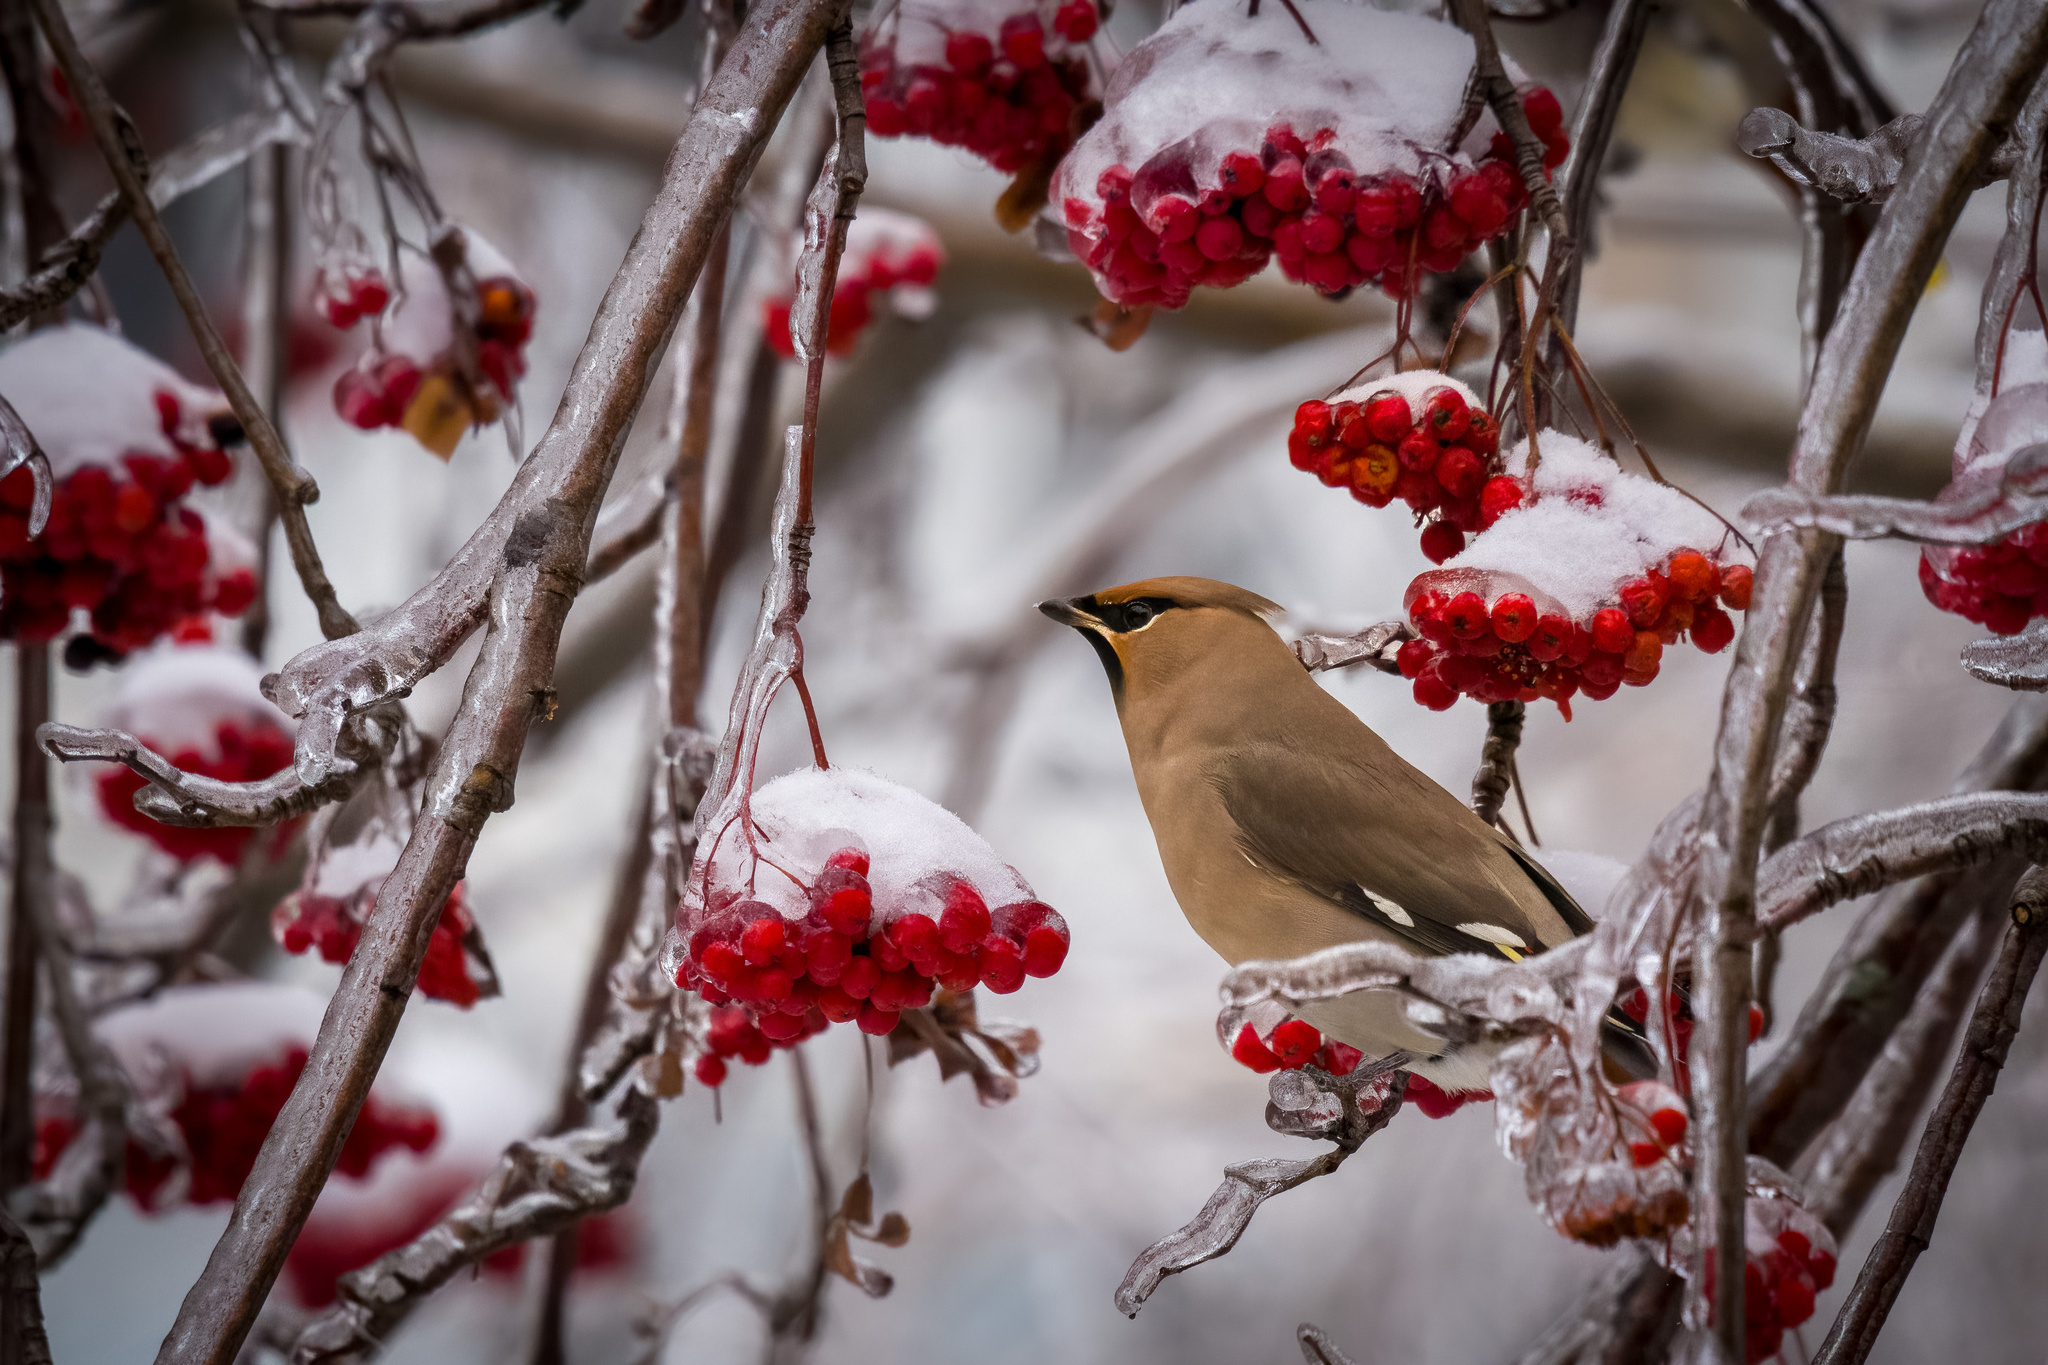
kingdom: Animalia
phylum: Chordata
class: Aves
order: Passeriformes
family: Bombycillidae
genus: Bombycilla
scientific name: Bombycilla garrulus
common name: Bohemian waxwing
